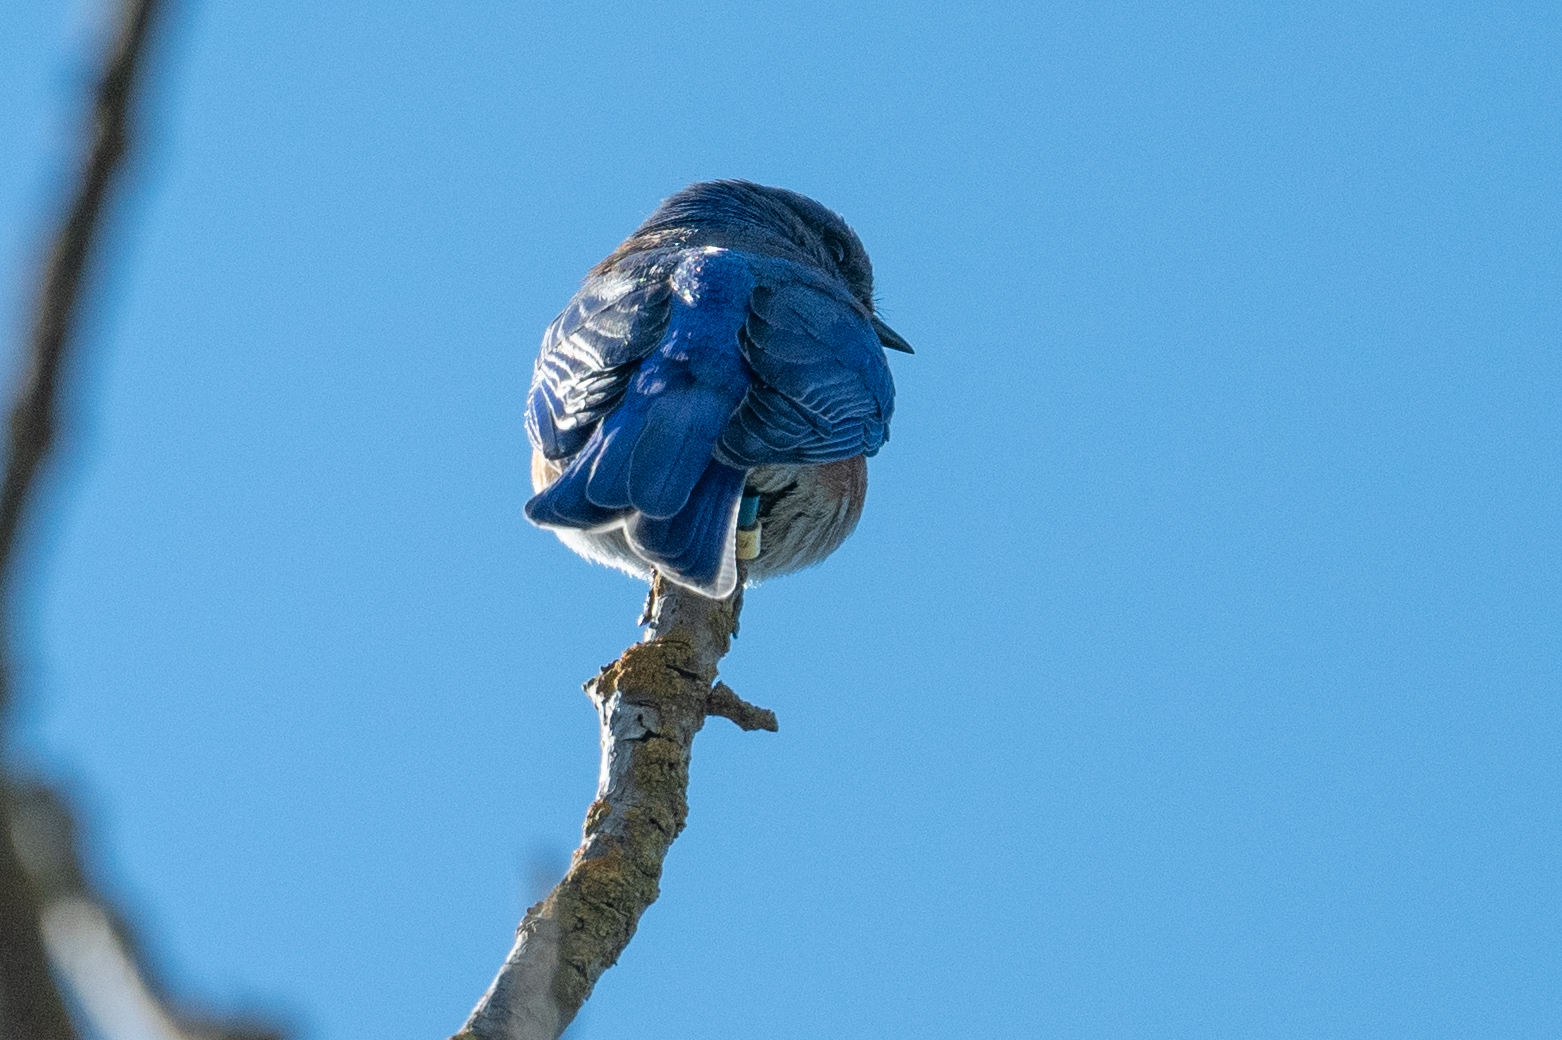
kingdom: Animalia
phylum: Chordata
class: Aves
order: Passeriformes
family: Turdidae
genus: Sialia
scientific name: Sialia mexicana
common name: Western bluebird
